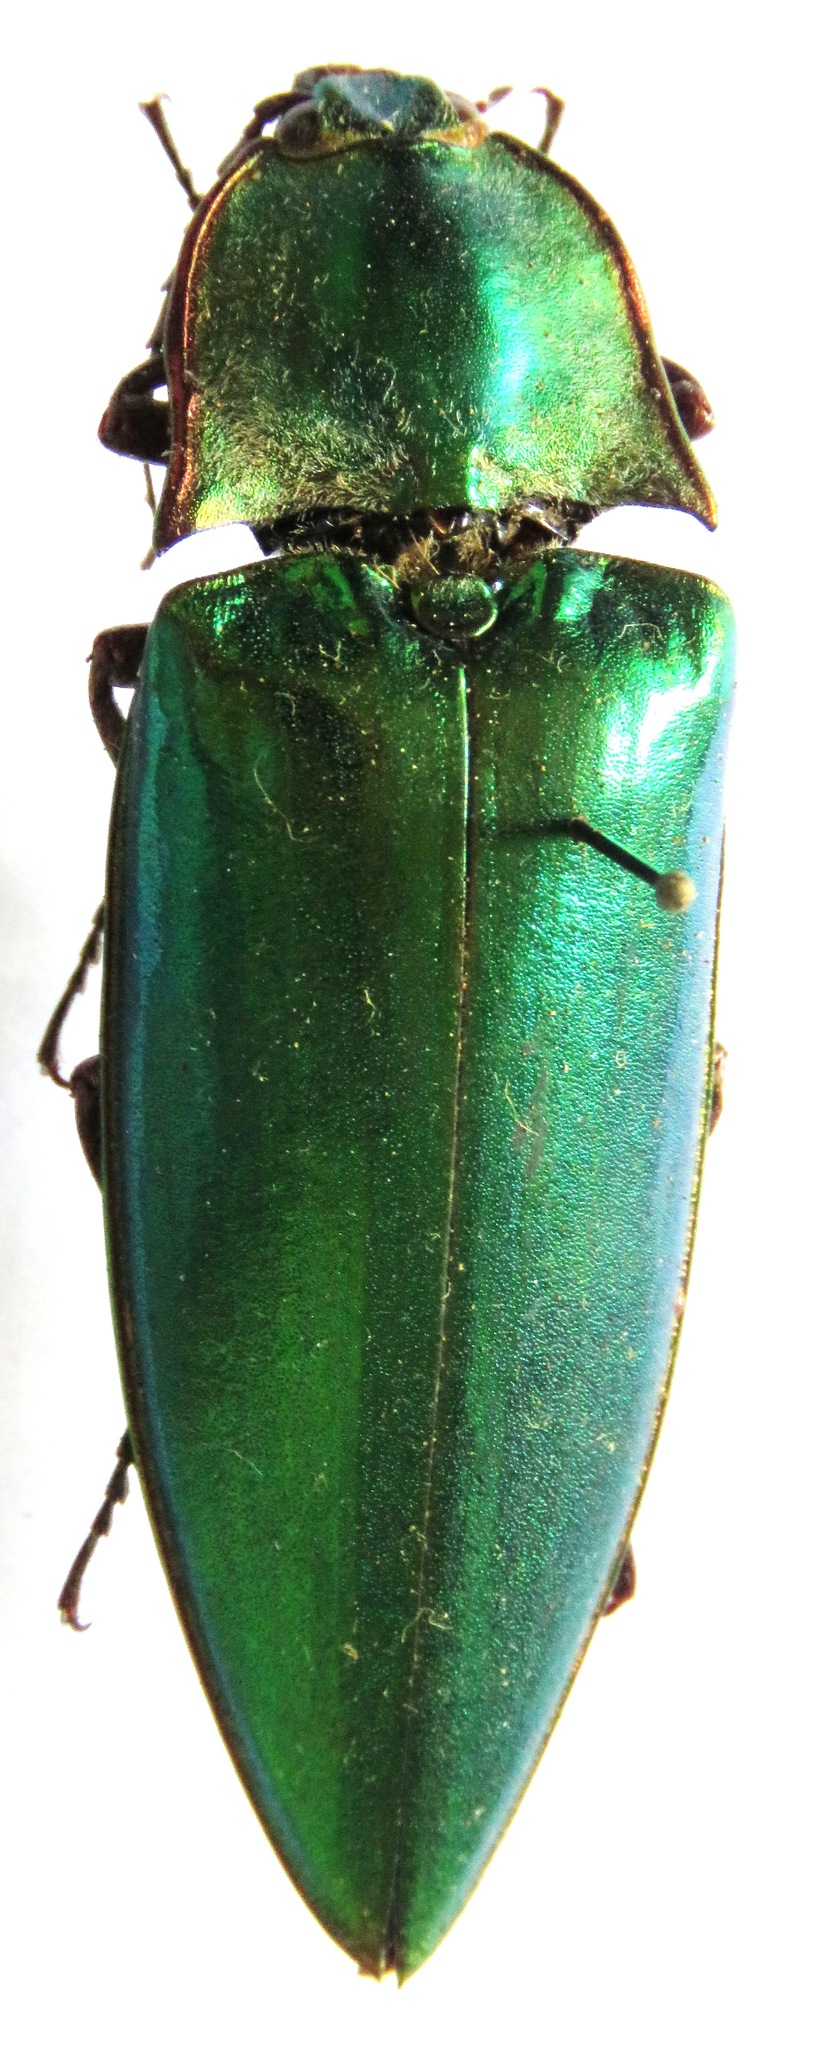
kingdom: Animalia
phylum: Arthropoda
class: Insecta
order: Coleoptera
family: Elateridae
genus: Campsosternus
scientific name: Campsosternus
